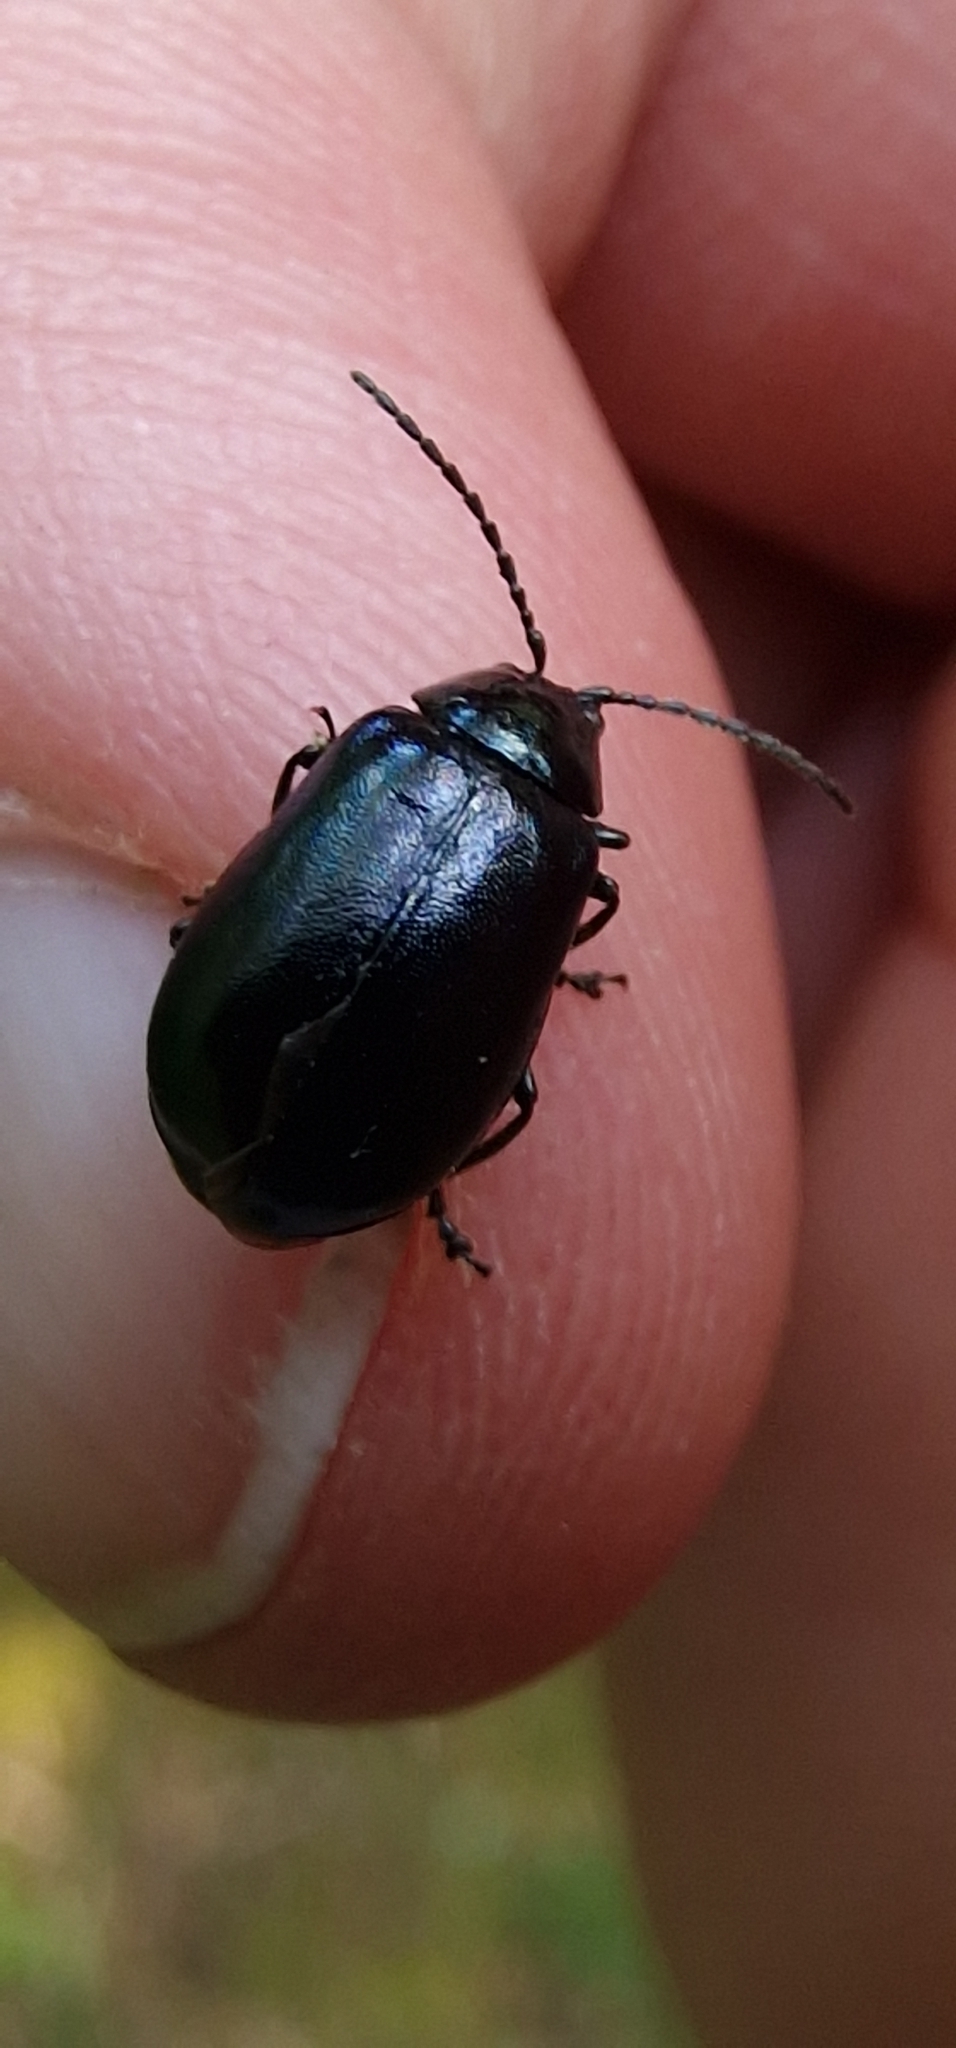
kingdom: Animalia
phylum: Arthropoda
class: Insecta
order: Coleoptera
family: Chrysomelidae
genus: Agelastica
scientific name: Agelastica alni
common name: Alder leaf beetle
